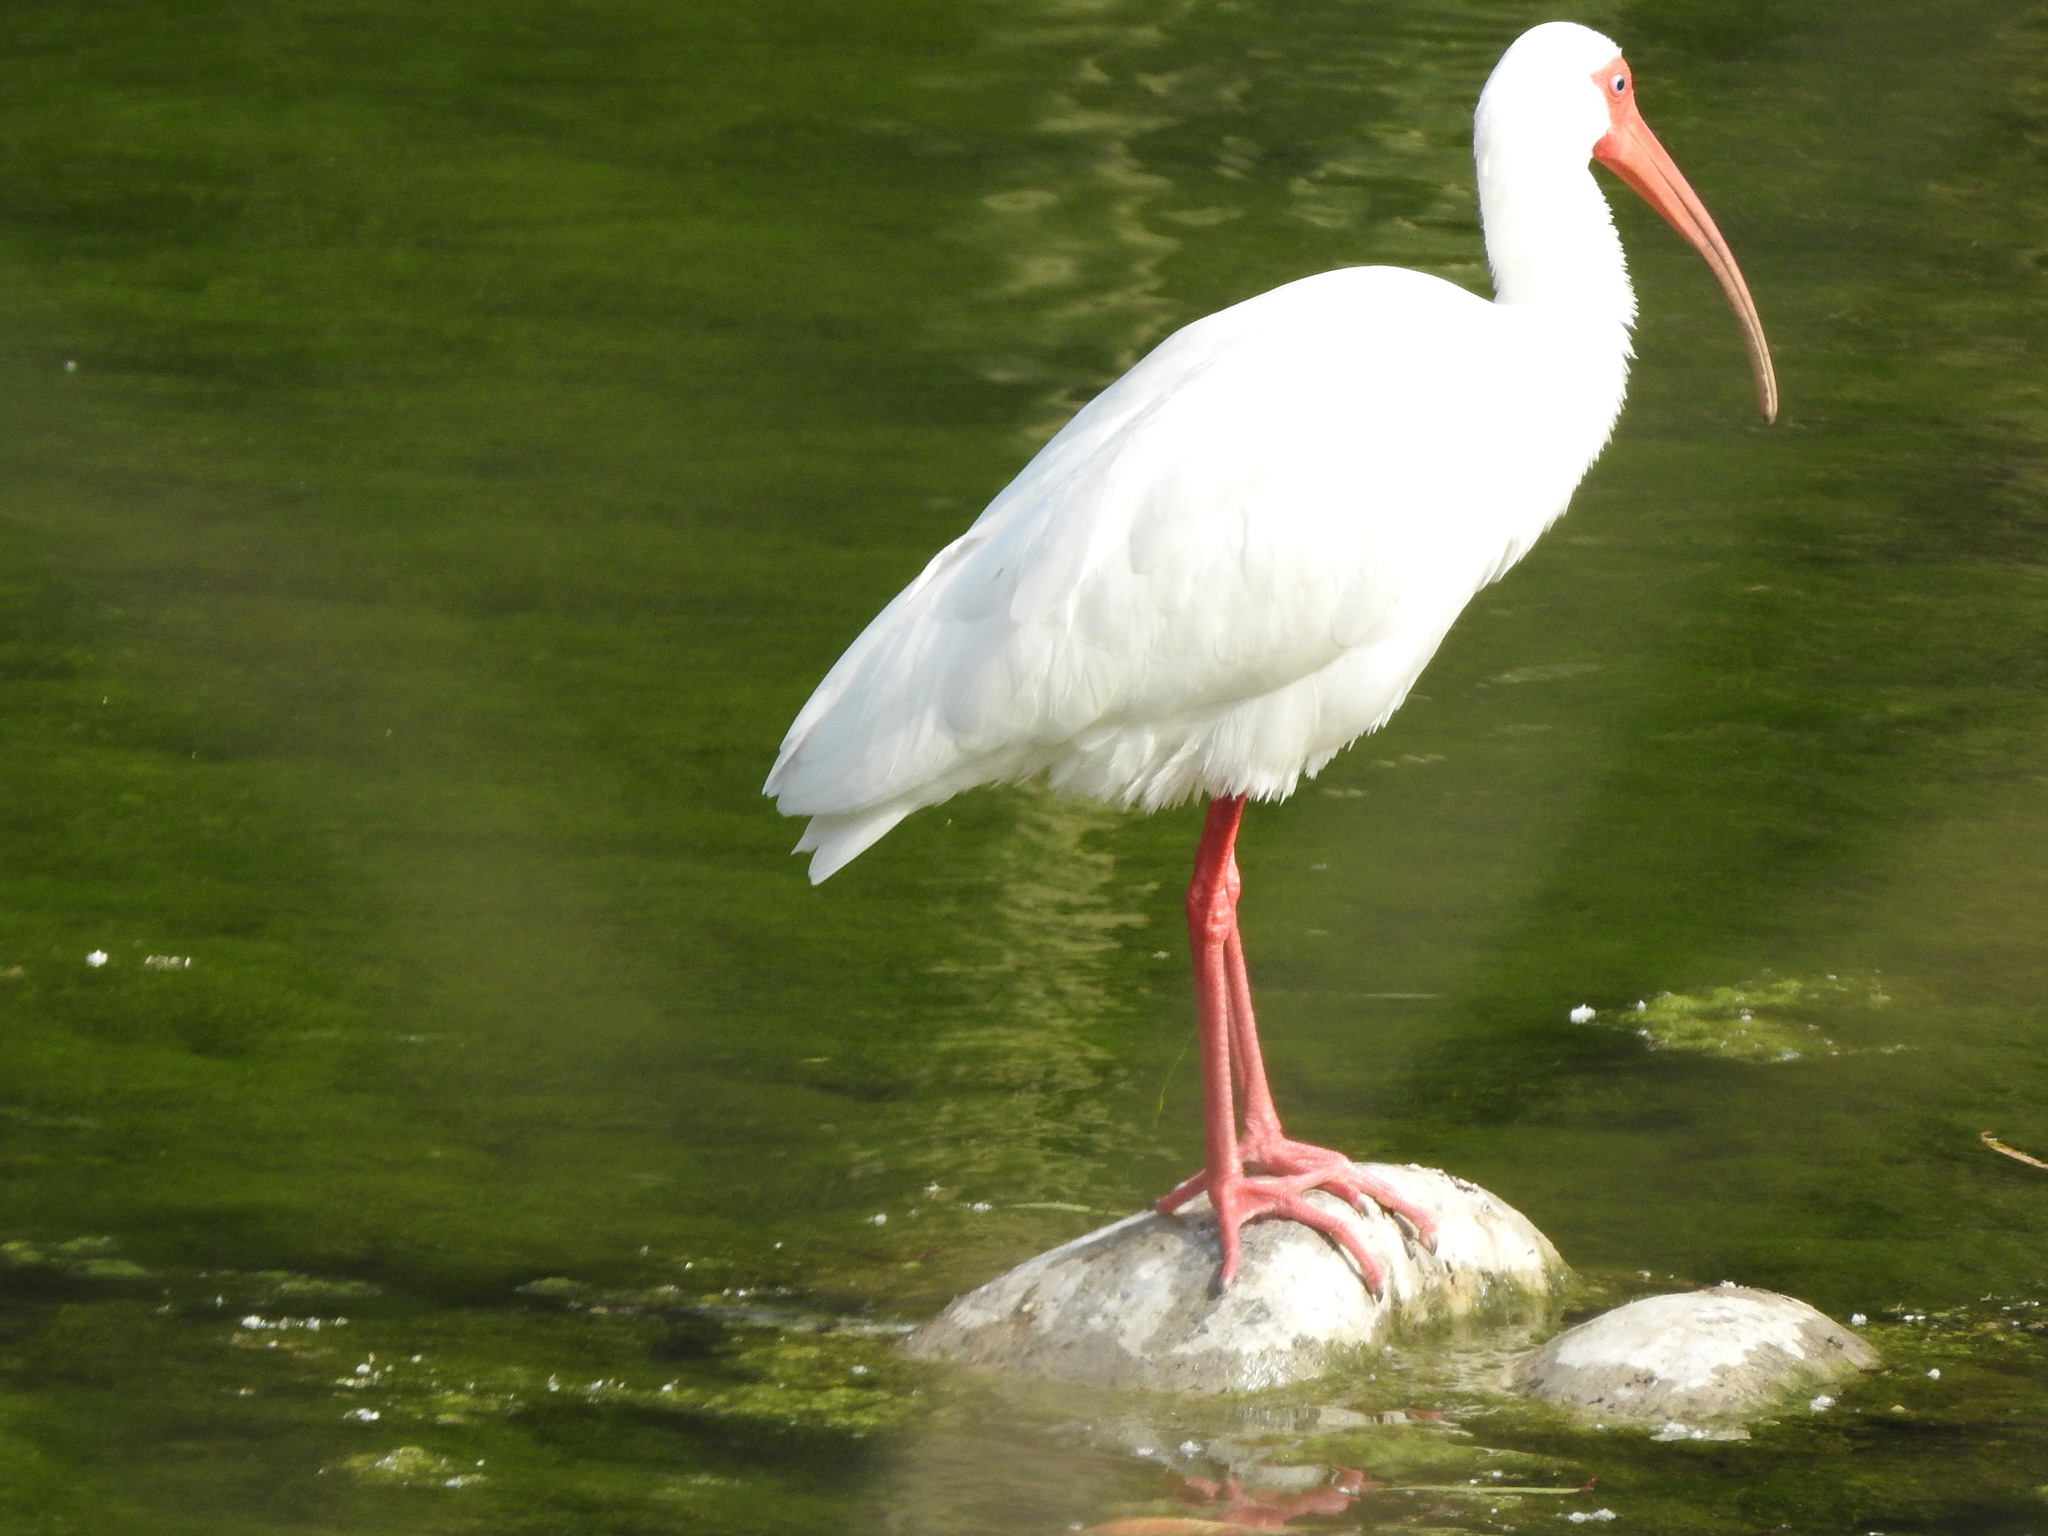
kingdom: Animalia
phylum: Chordata
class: Aves
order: Pelecaniformes
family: Threskiornithidae
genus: Eudocimus
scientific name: Eudocimus albus
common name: White ibis
